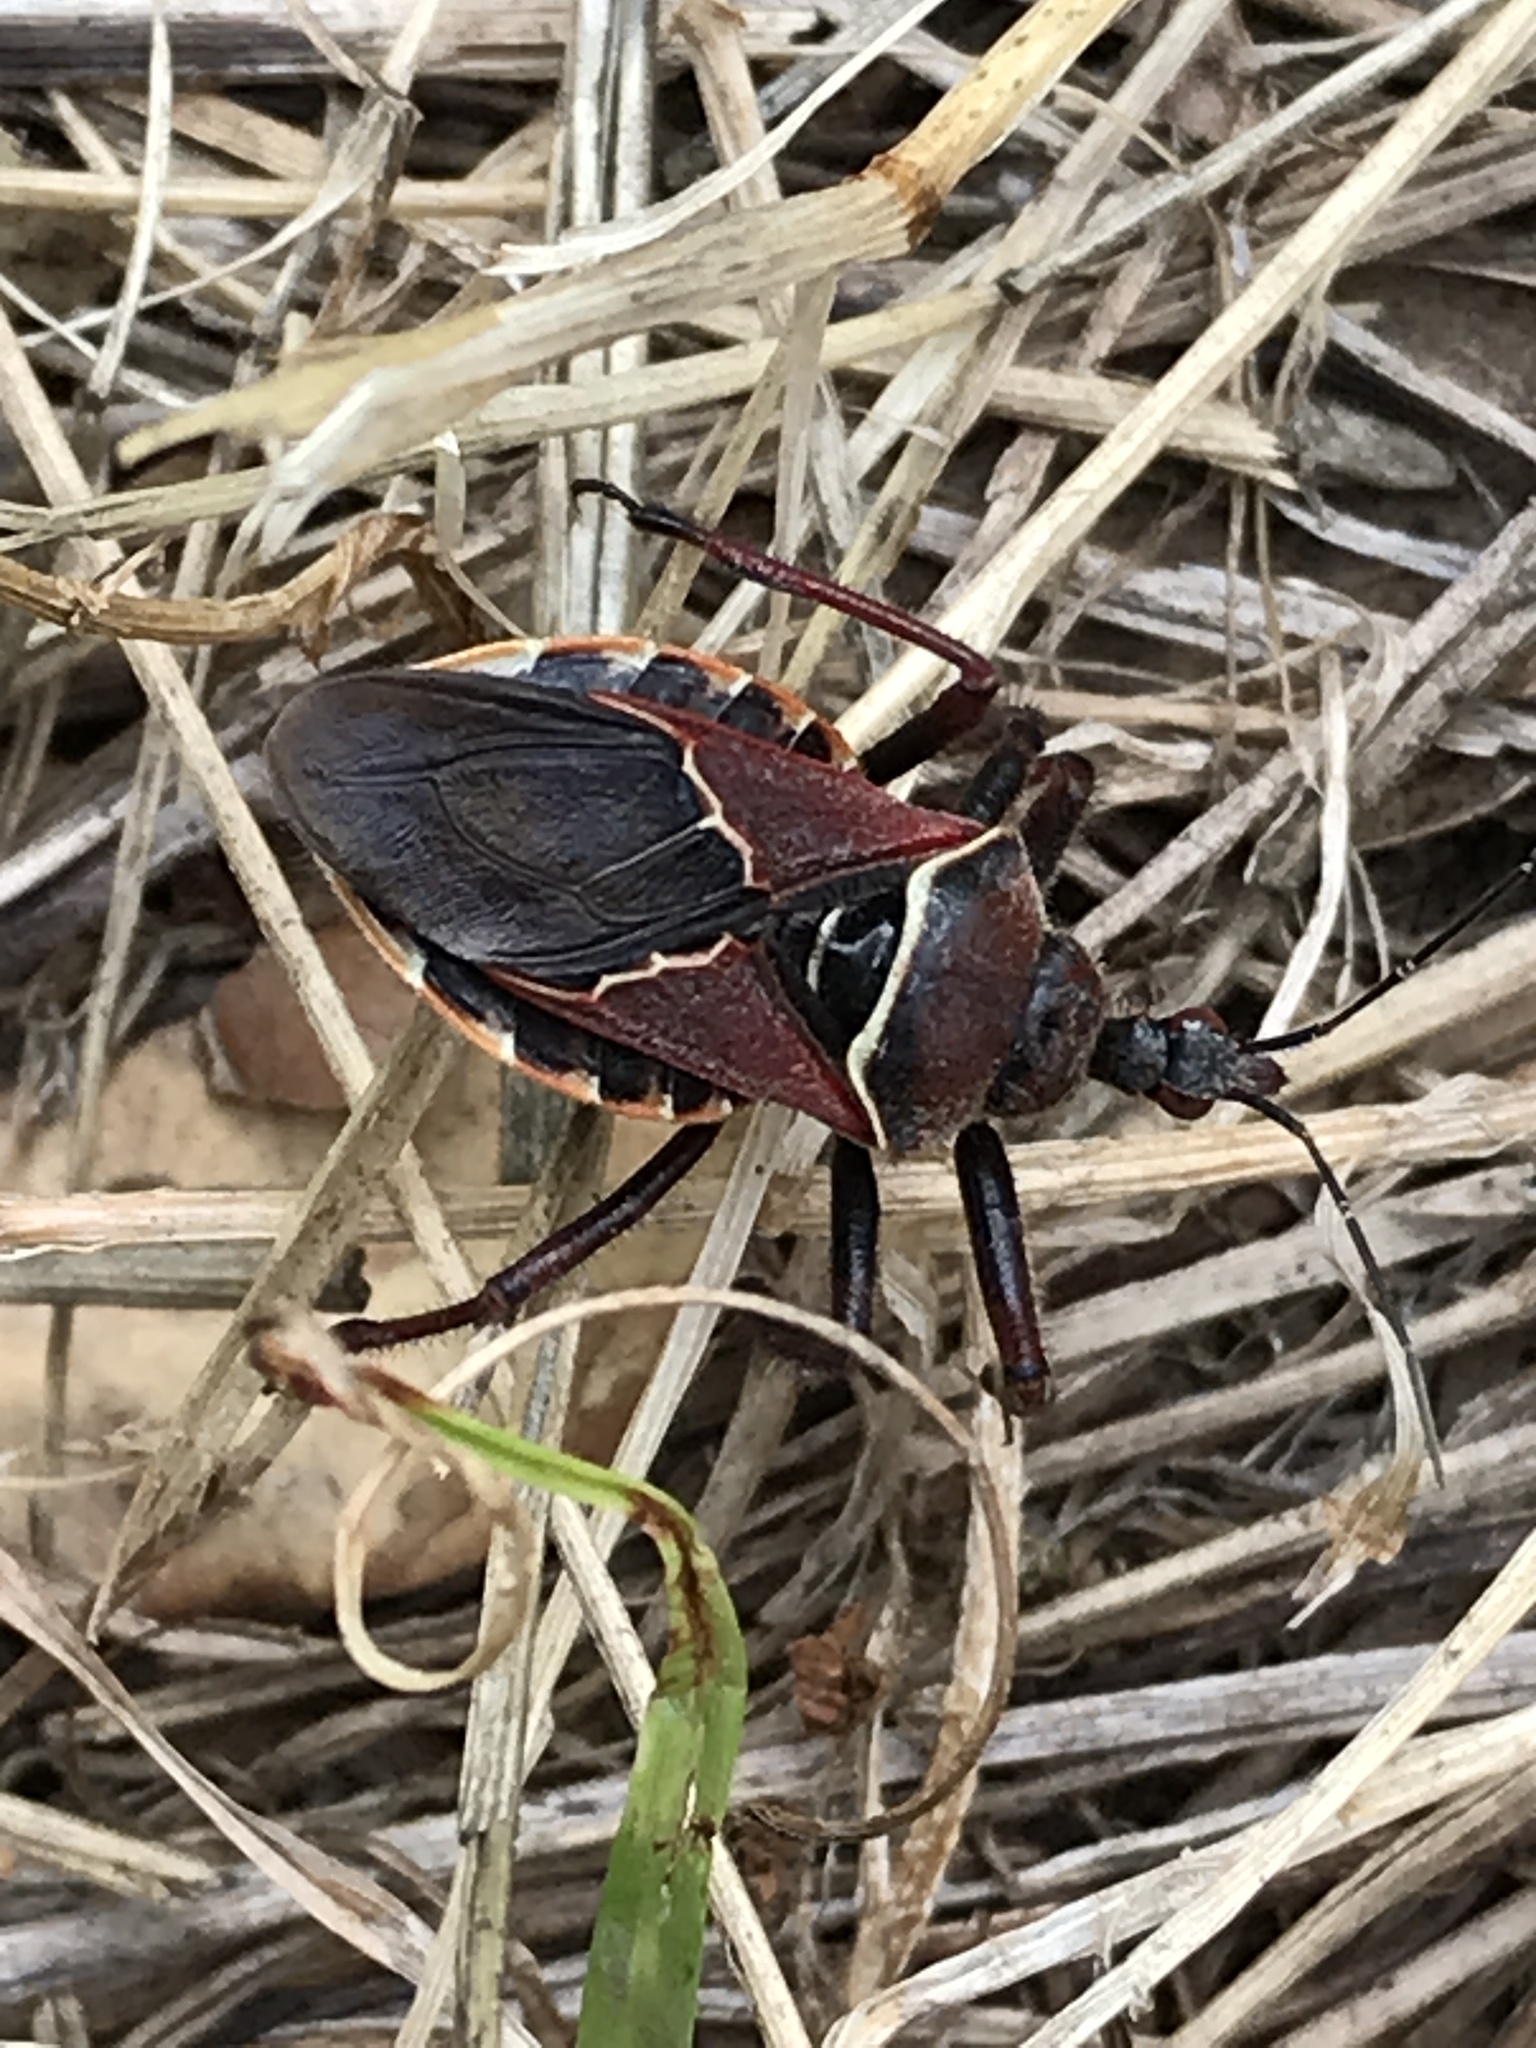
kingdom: Animalia
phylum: Arthropoda
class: Insecta
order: Hemiptera
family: Reduviidae
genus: Apiomerus
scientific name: Apiomerus spissipes
